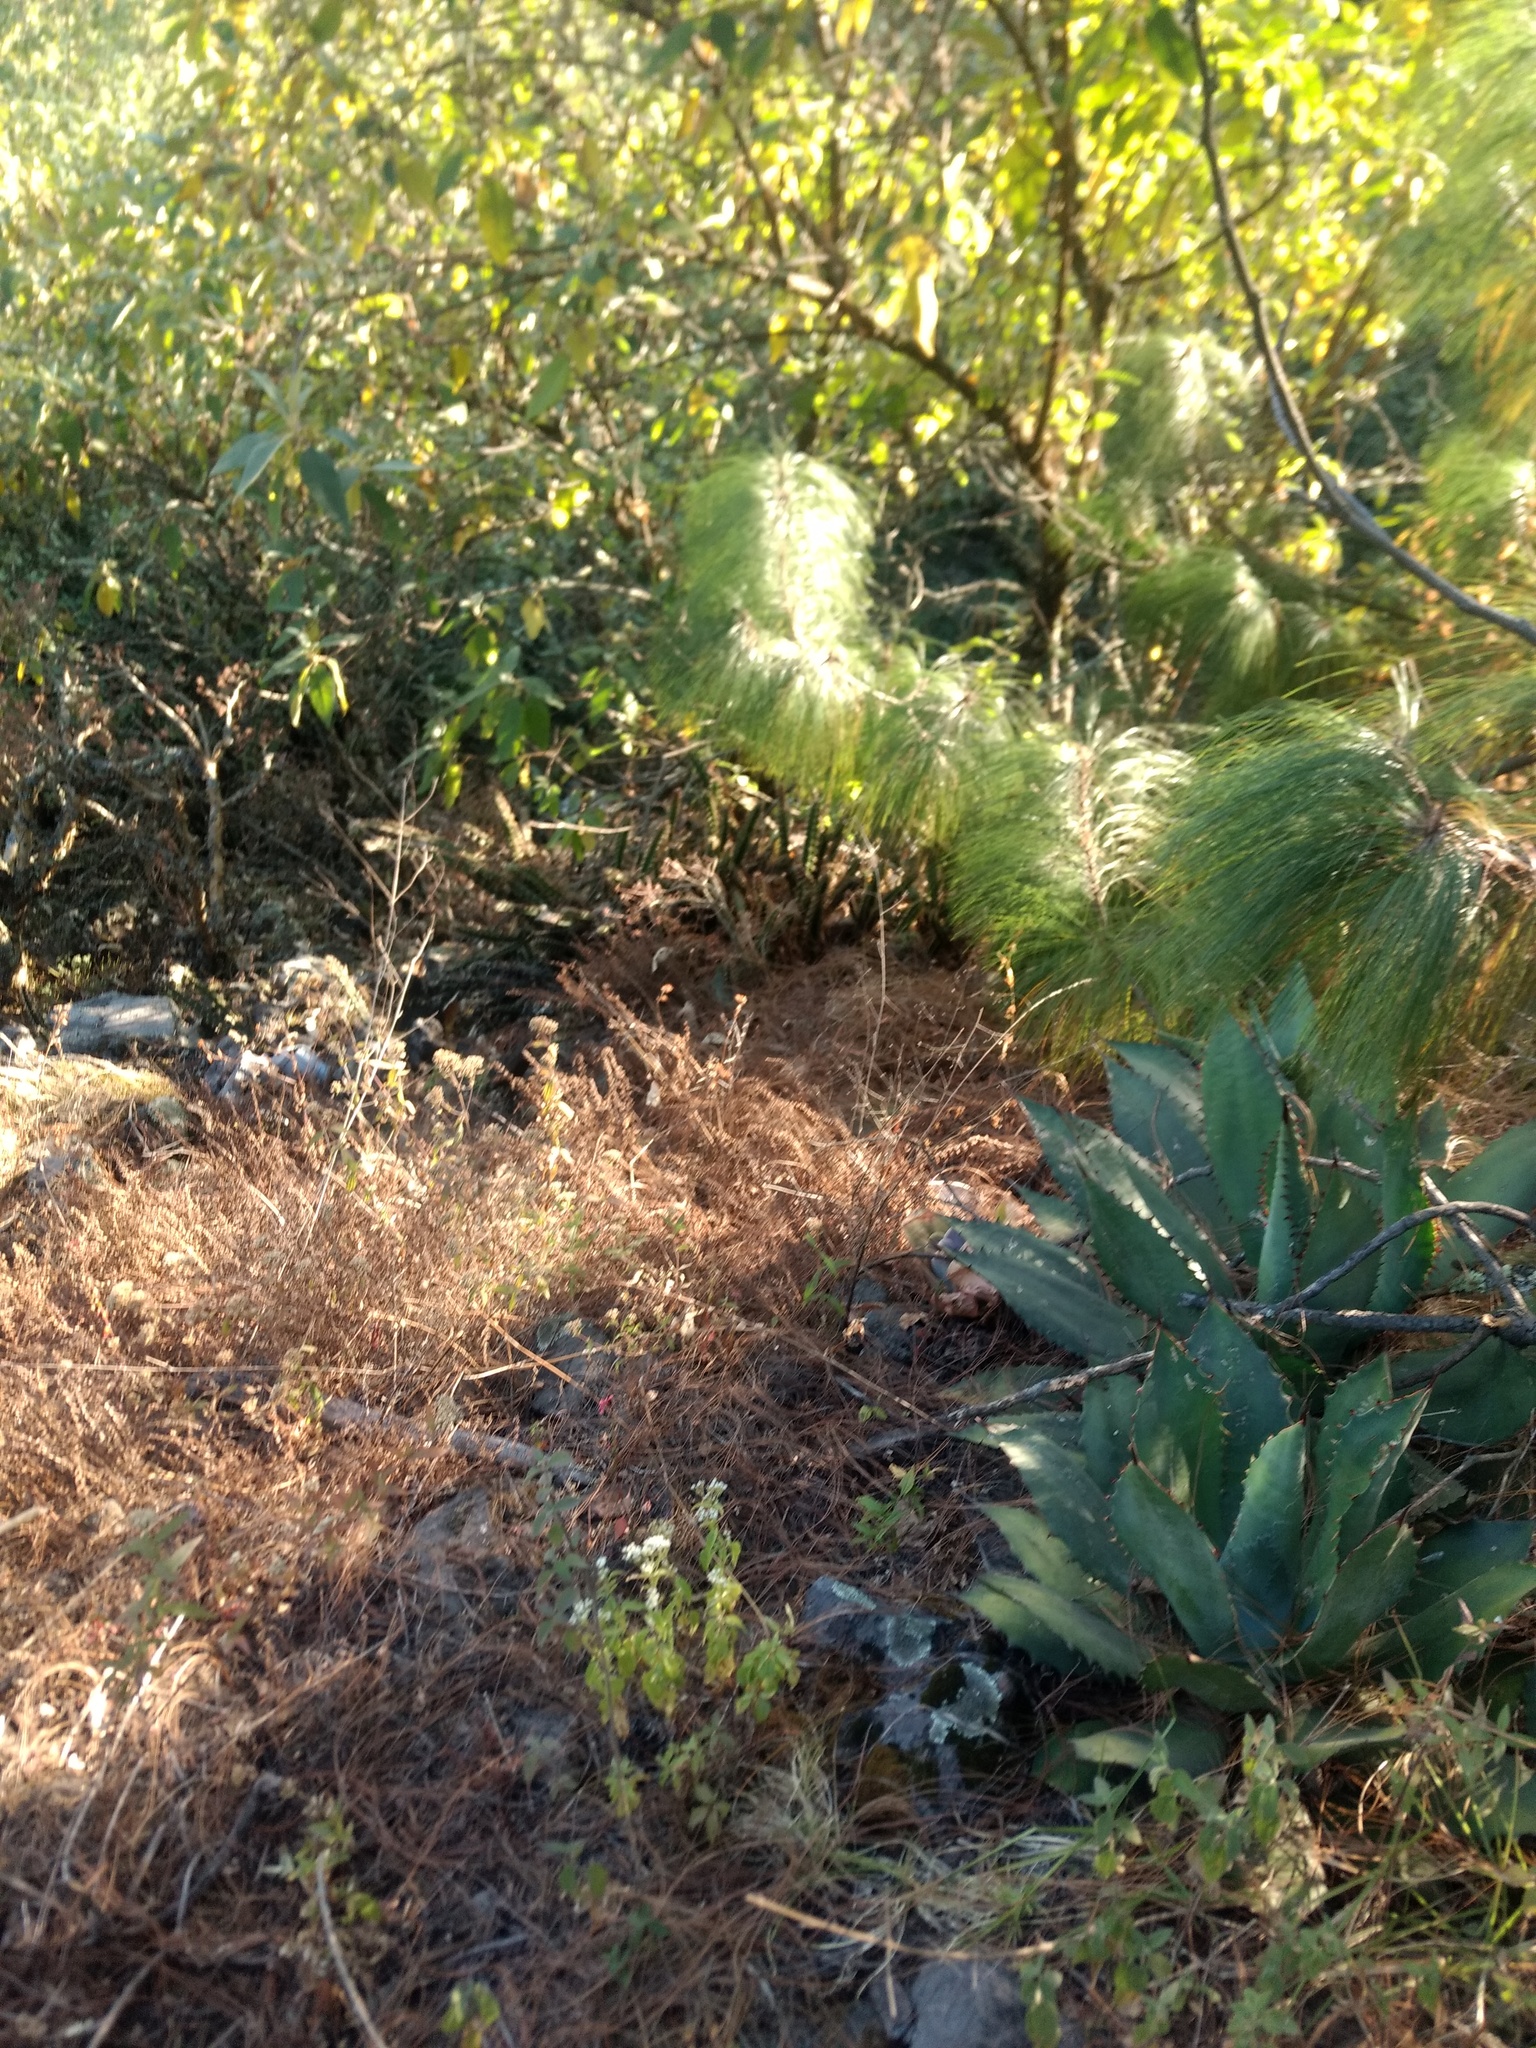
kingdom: Plantae
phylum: Tracheophyta
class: Liliopsida
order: Asparagales
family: Asparagaceae
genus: Agave
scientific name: Agave inaequidens
